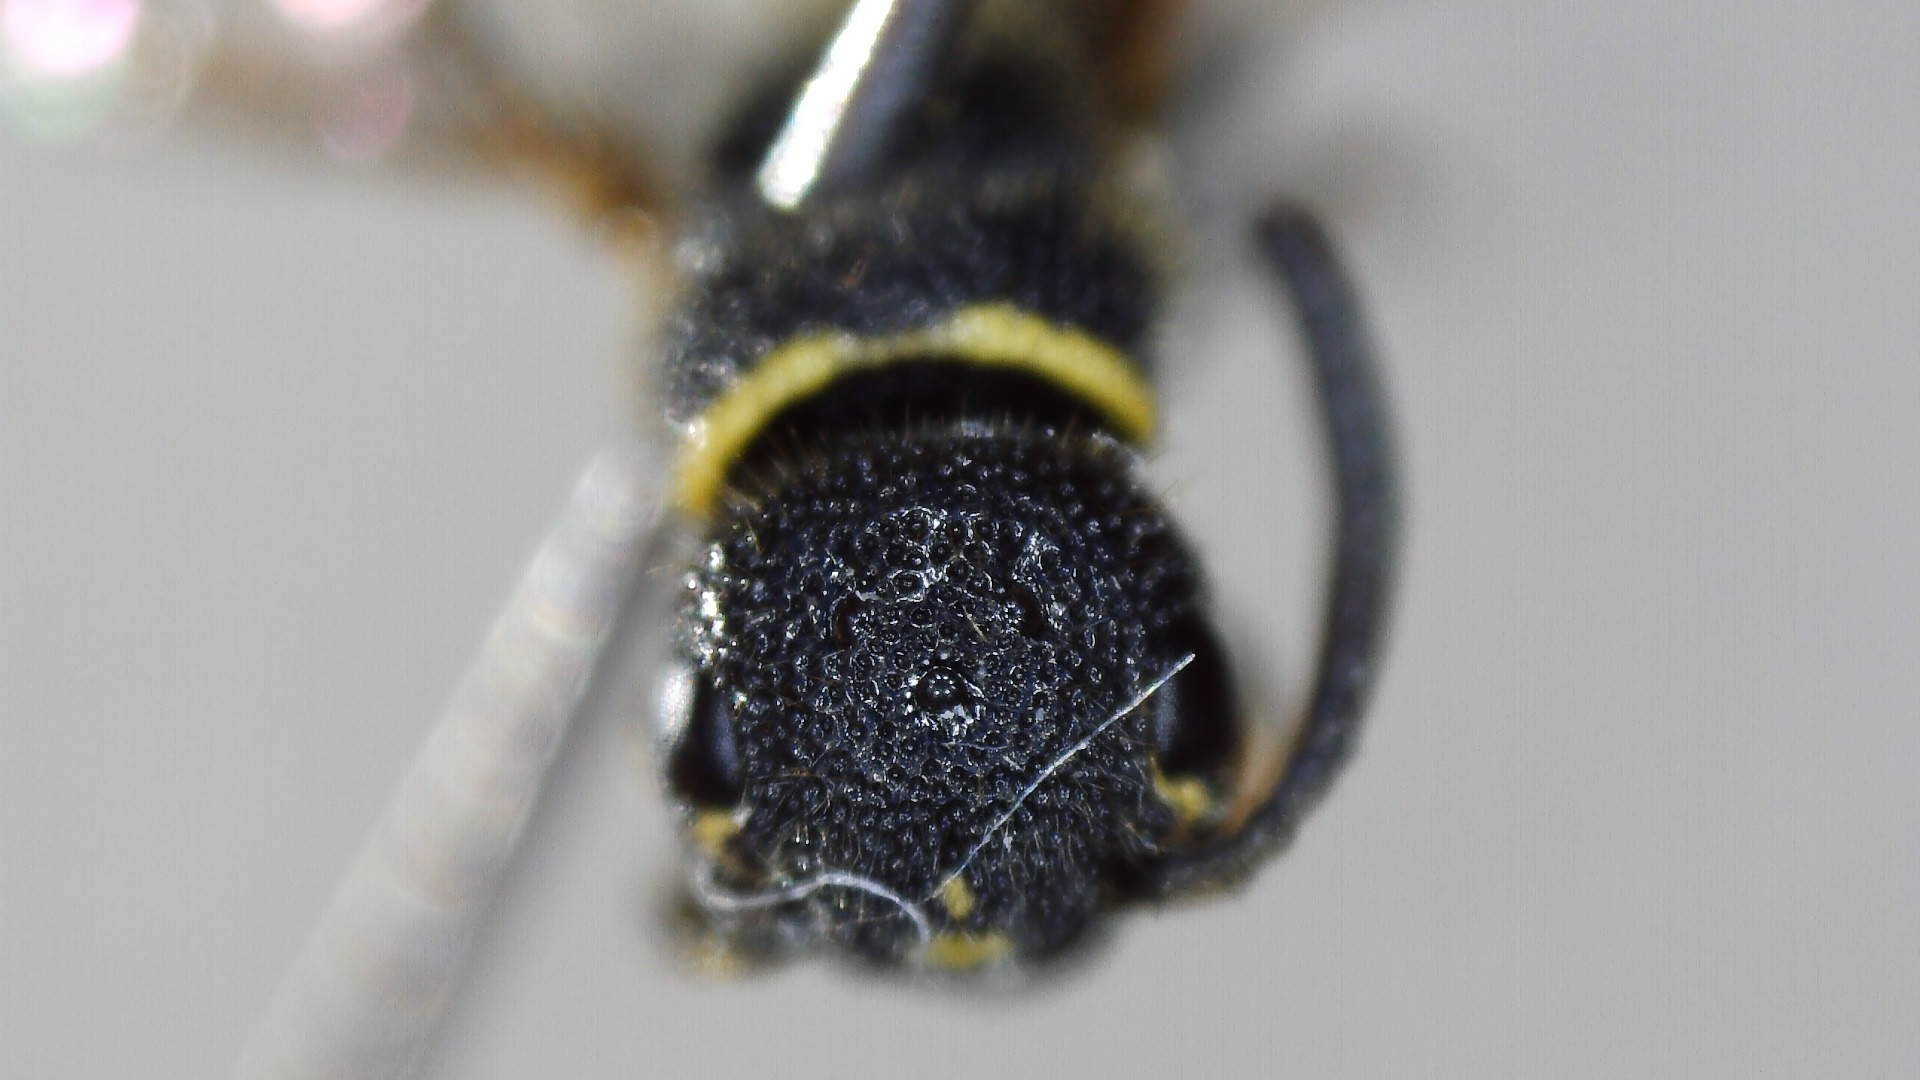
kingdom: Animalia
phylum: Arthropoda
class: Insecta
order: Hymenoptera
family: Sapygidae
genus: Sapyga
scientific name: Sapyga louisi
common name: Louis's club-horned cuckoo wasp
